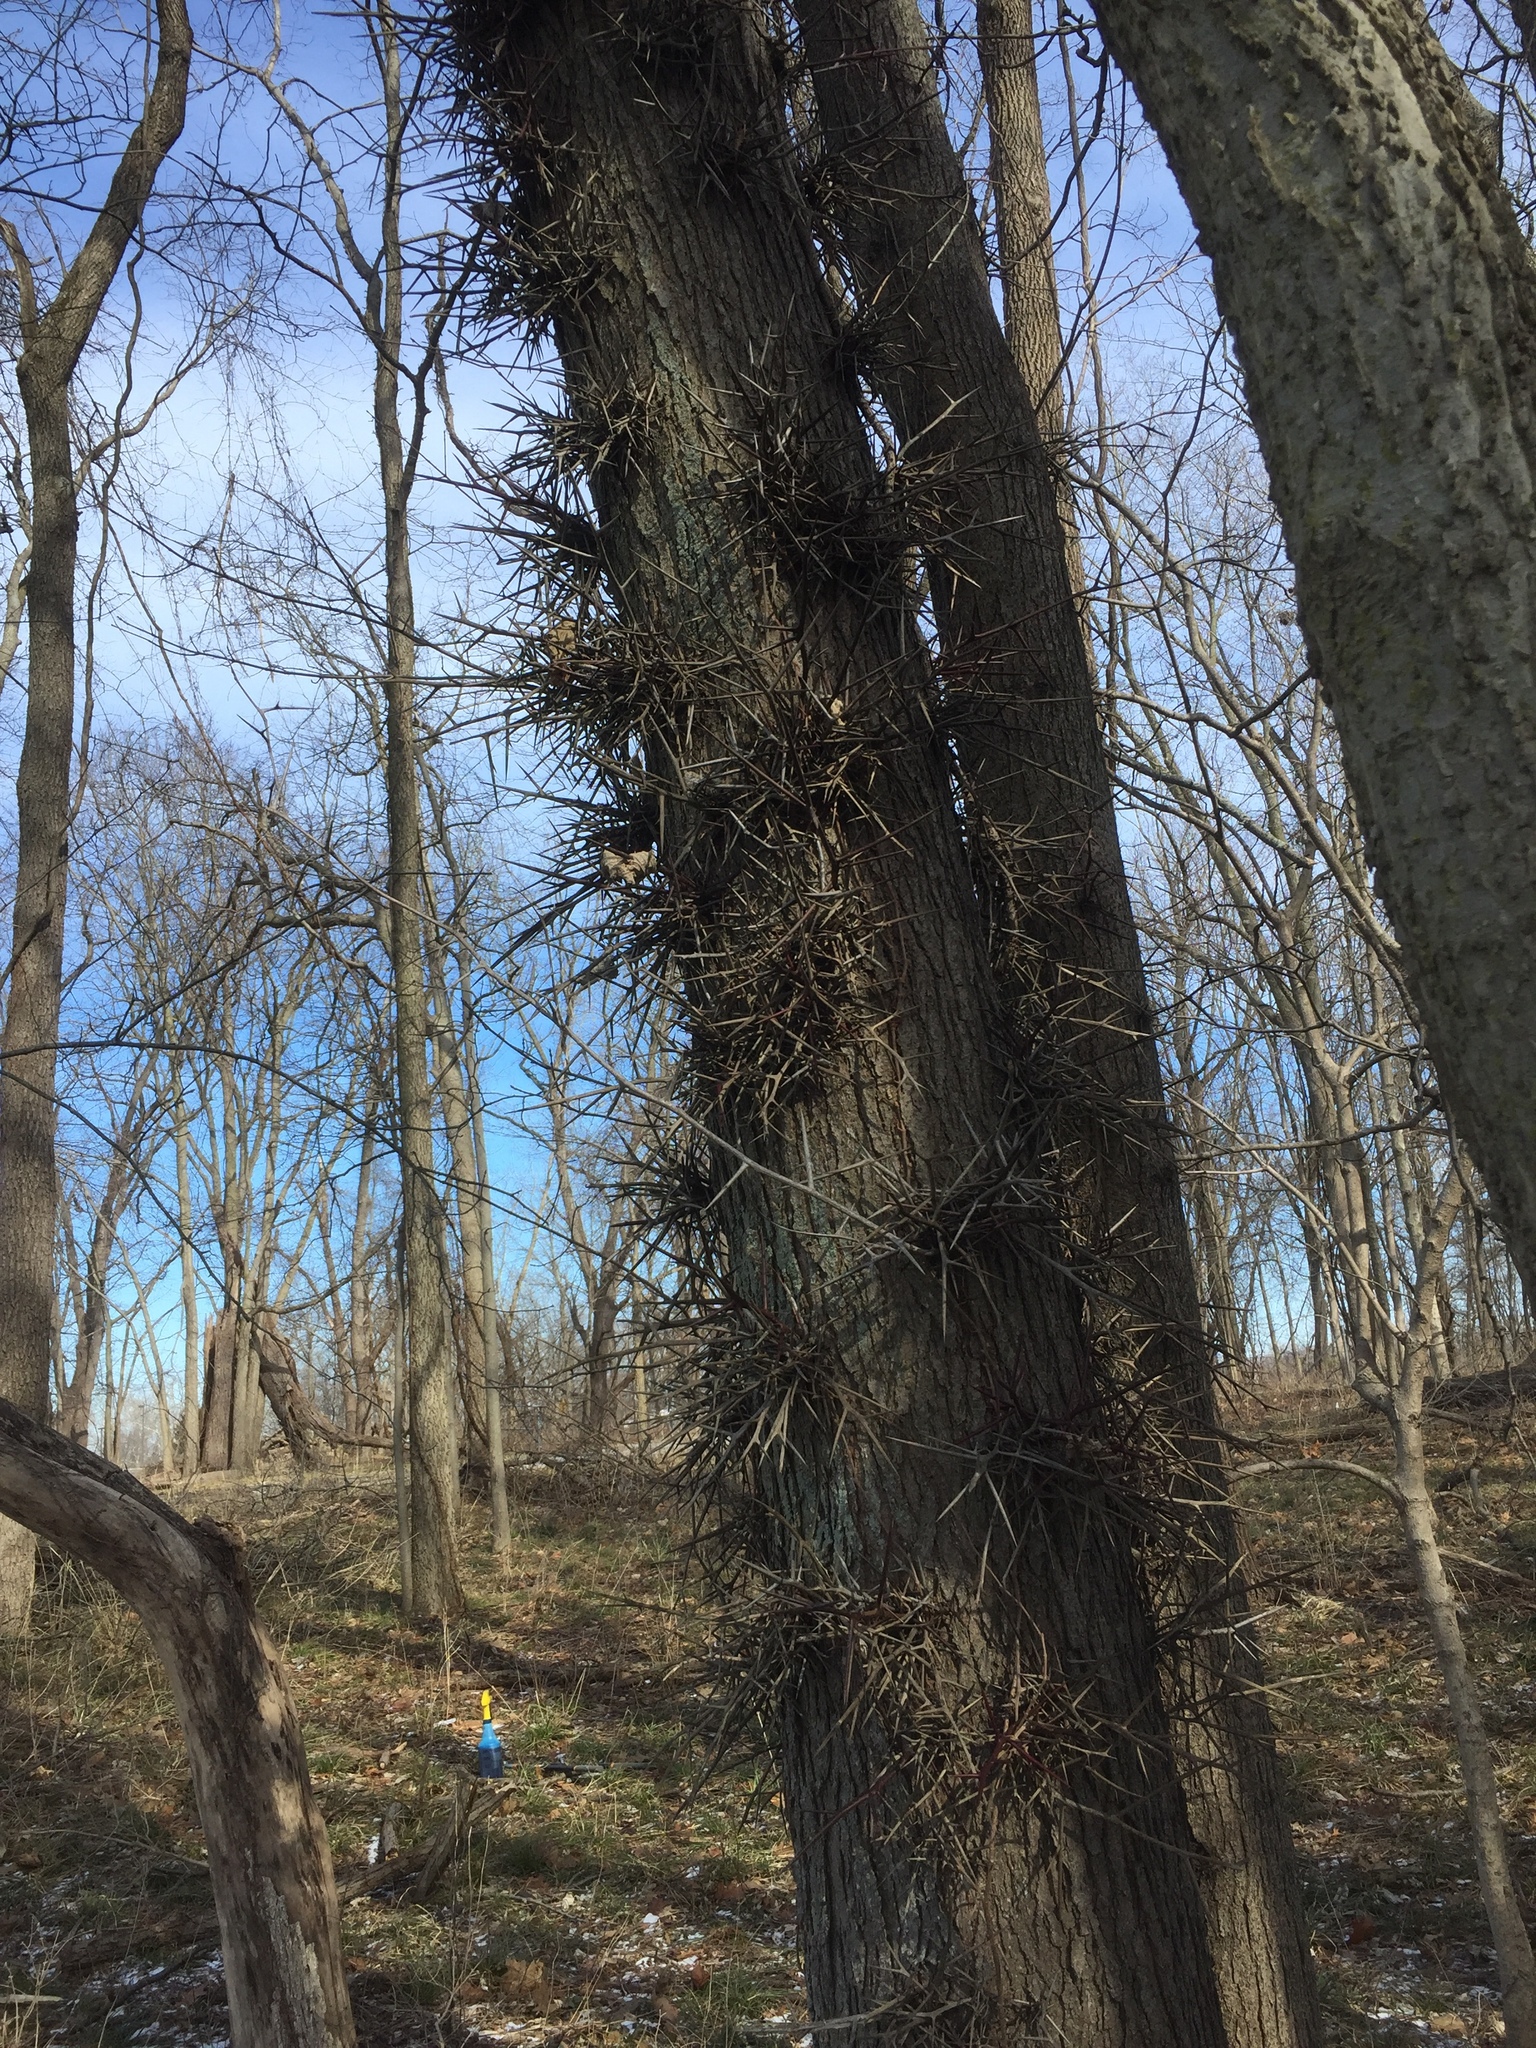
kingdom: Plantae
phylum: Tracheophyta
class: Magnoliopsida
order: Fabales
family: Fabaceae
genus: Gleditsia
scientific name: Gleditsia triacanthos
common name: Common honeylocust
